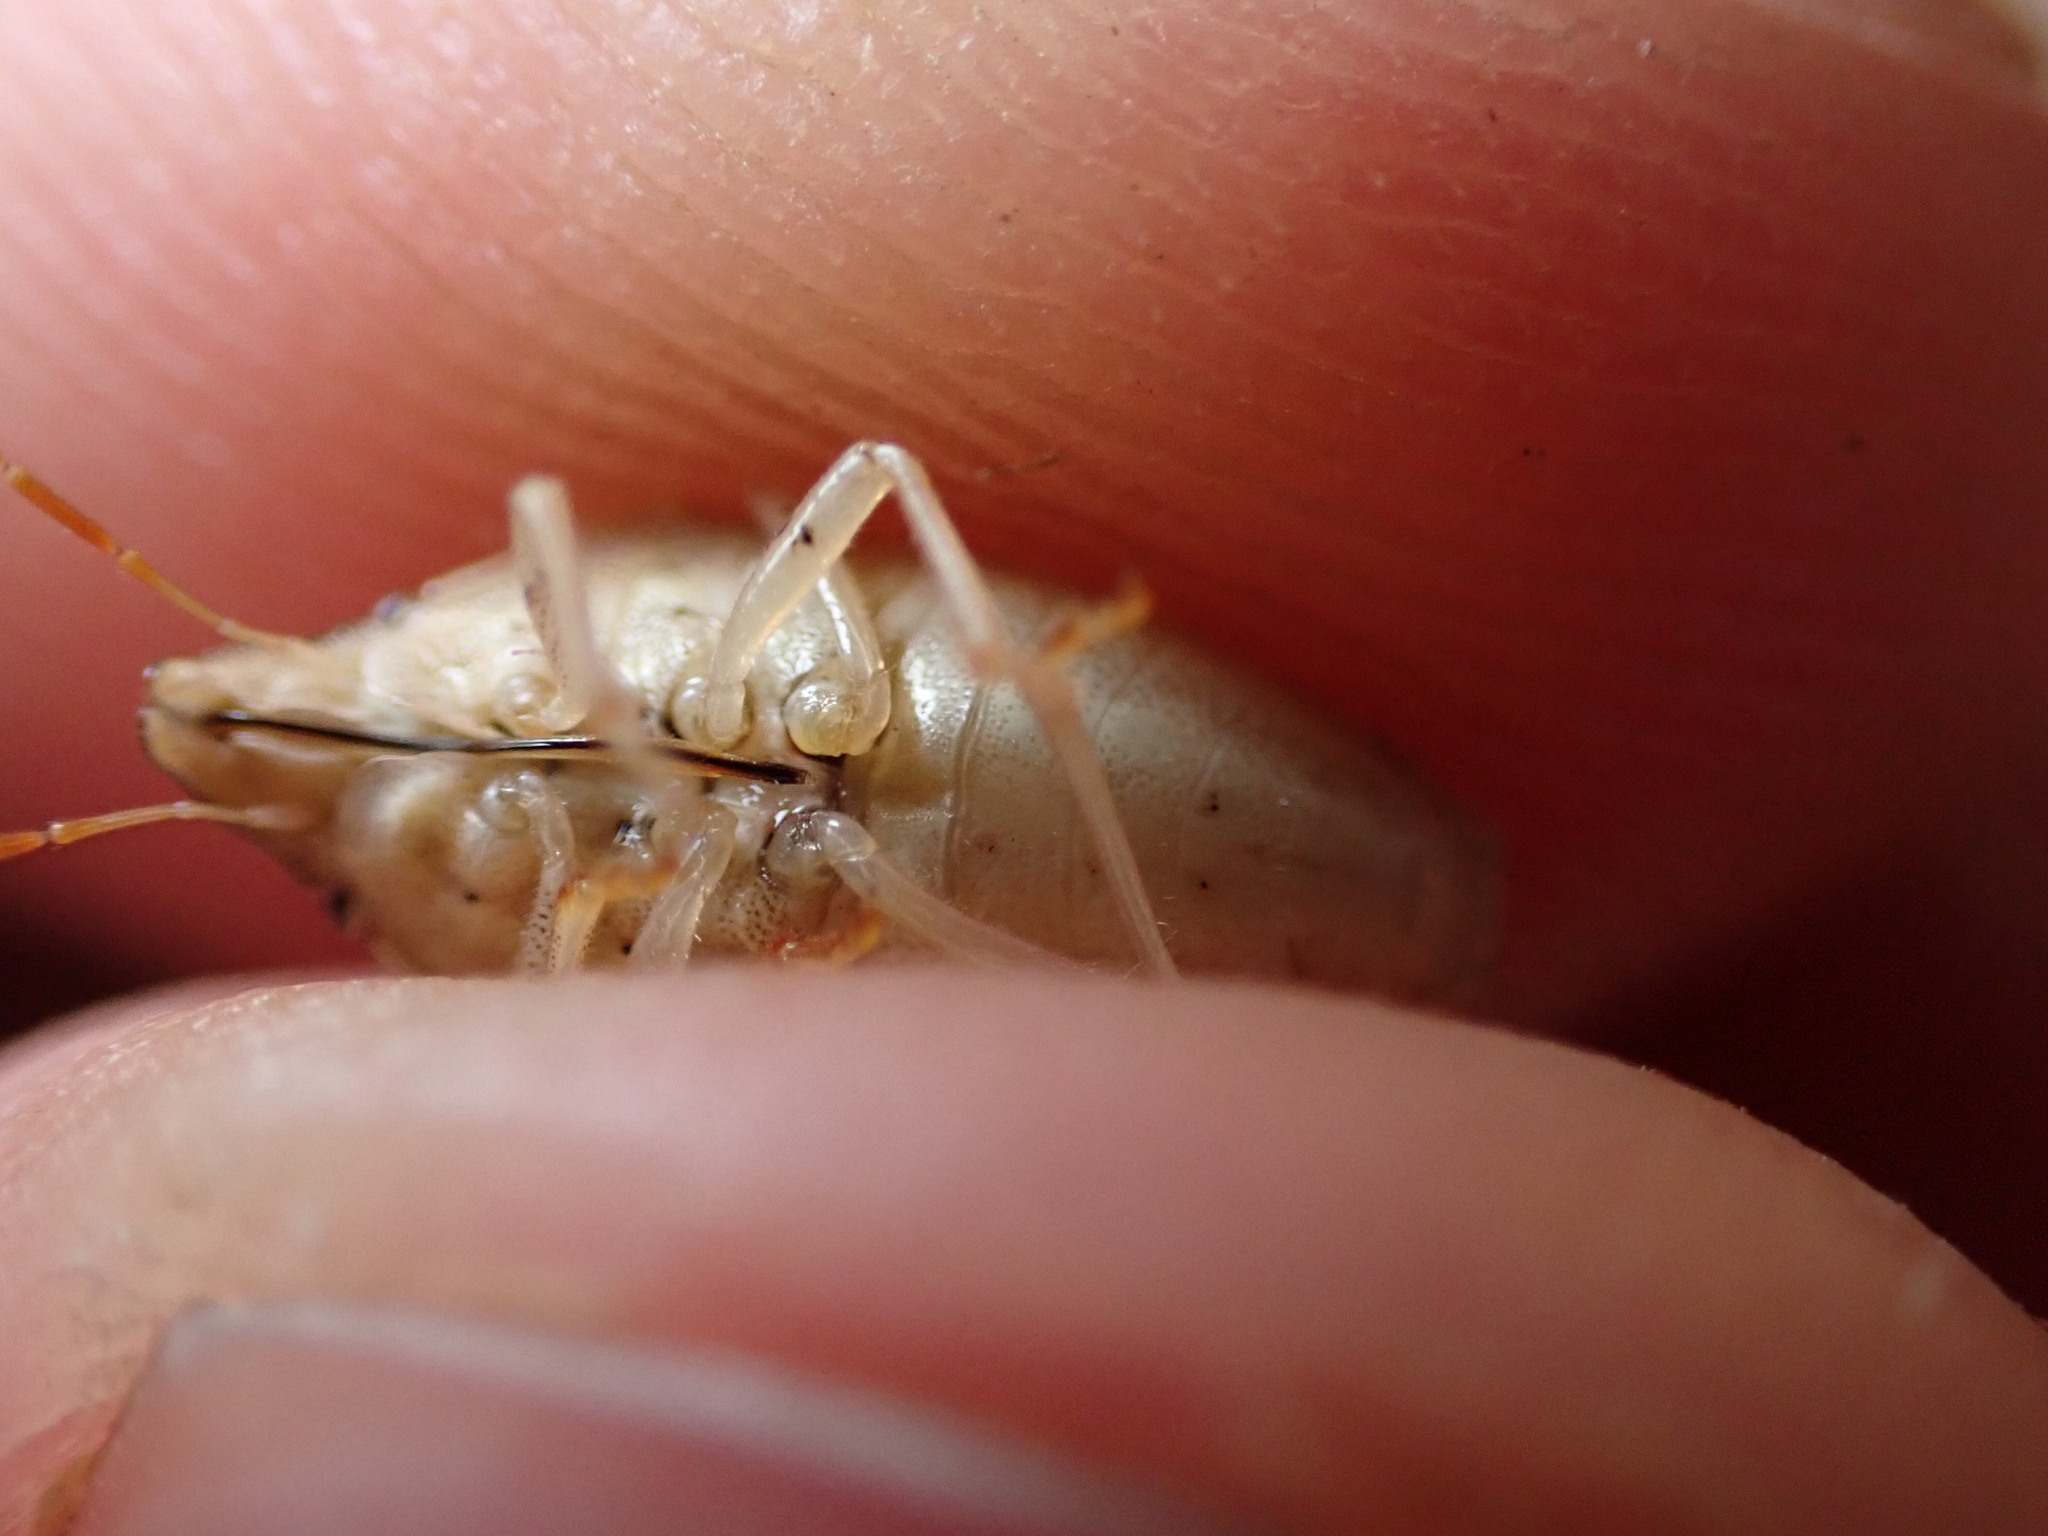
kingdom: Animalia
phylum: Arthropoda
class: Insecta
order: Hemiptera
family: Pentatomidae
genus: Aelia
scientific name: Aelia acuminata
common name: Bishop's mitre
